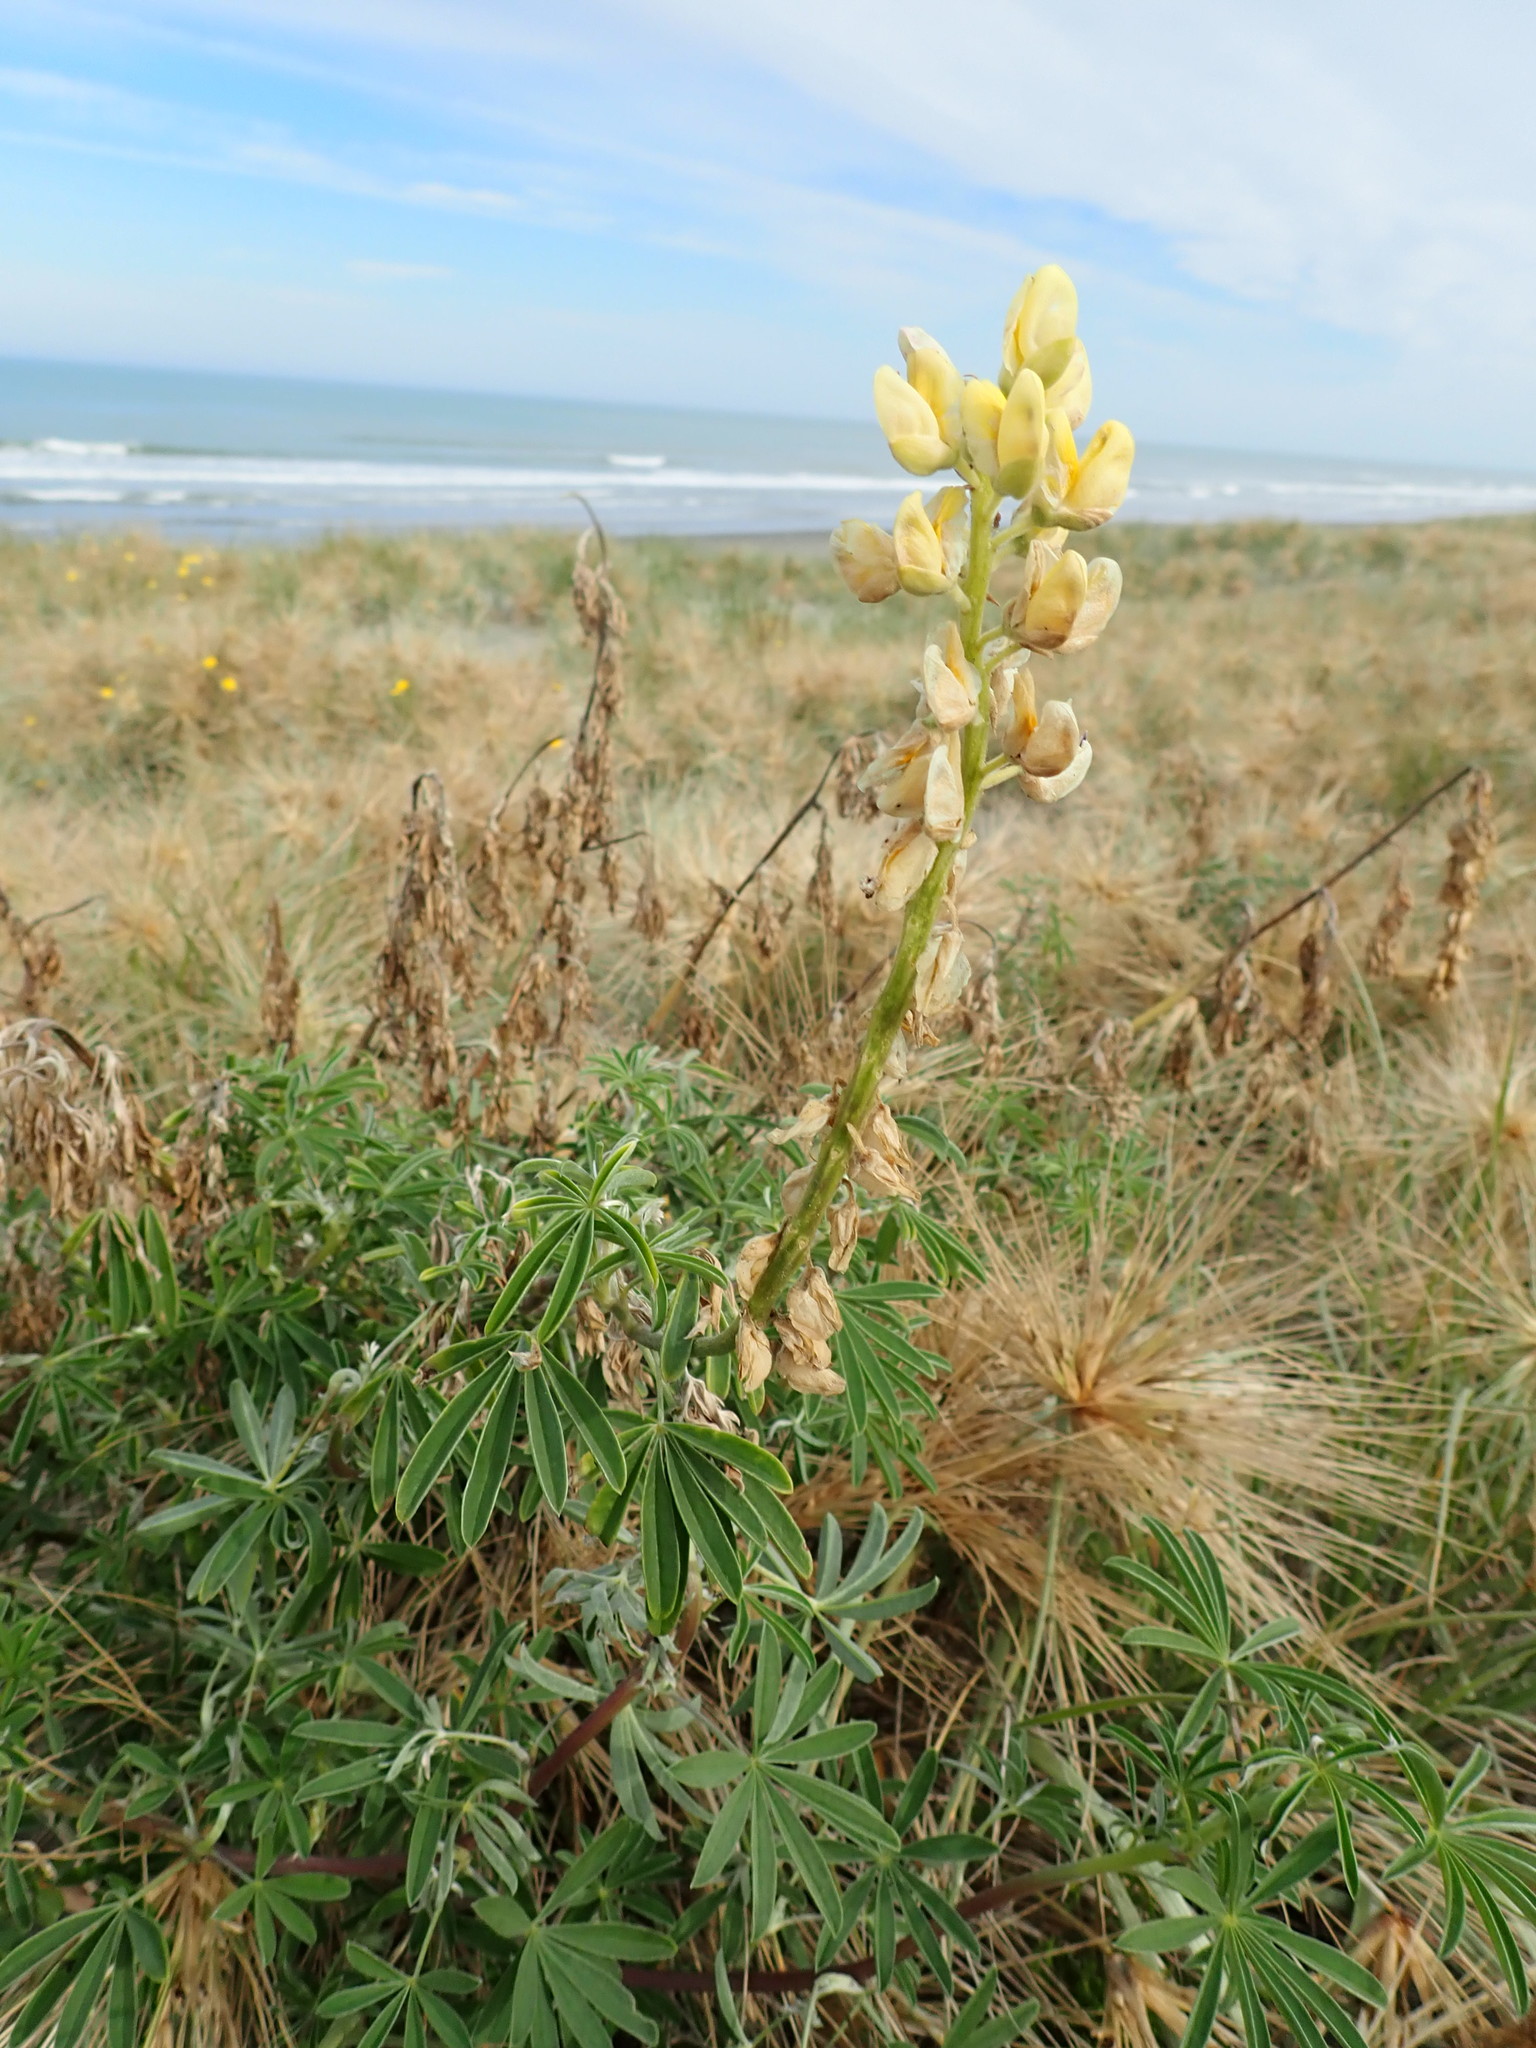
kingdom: Plantae
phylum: Tracheophyta
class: Magnoliopsida
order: Fabales
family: Fabaceae
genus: Lupinus
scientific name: Lupinus arboreus
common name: Yellow bush lupine
